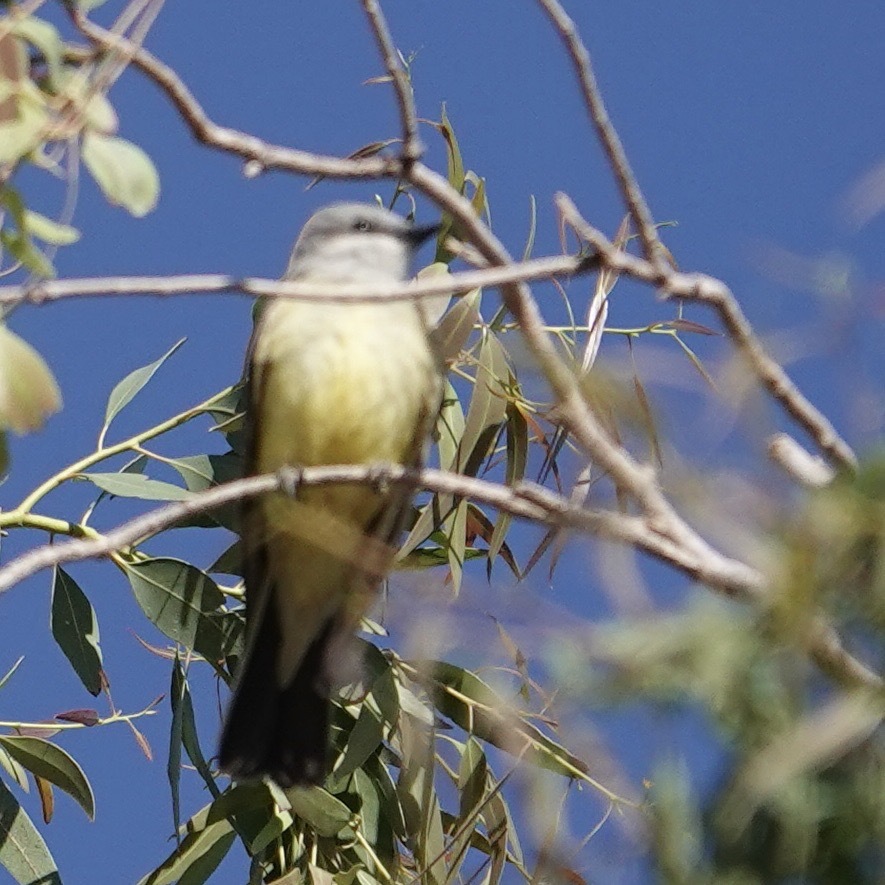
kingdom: Animalia
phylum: Chordata
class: Aves
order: Passeriformes
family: Tyrannidae
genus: Tyrannus
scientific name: Tyrannus verticalis
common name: Western kingbird
